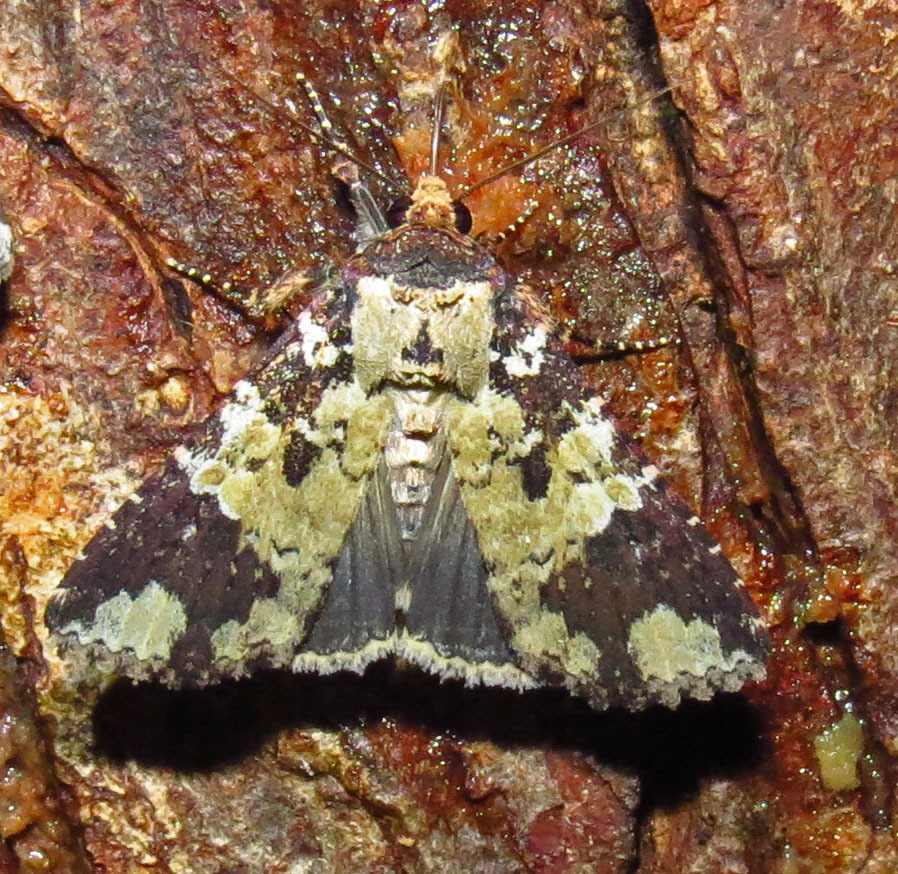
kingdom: Animalia
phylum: Arthropoda
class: Insecta
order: Lepidoptera
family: Noctuidae
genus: Condica
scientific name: Condica confederata
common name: The confederate
